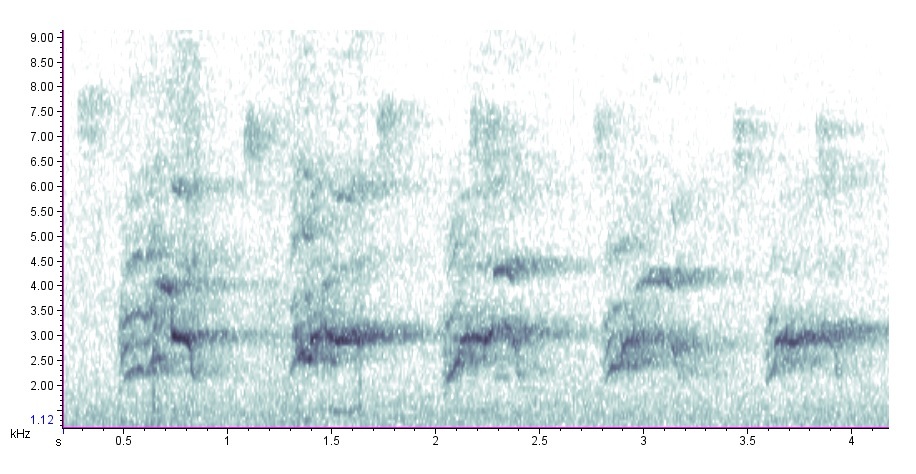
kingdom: Animalia
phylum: Chordata
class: Aves
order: Accipitriformes
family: Accipitridae
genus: Buteo
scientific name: Buteo jamaicensis
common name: Red-tailed hawk
